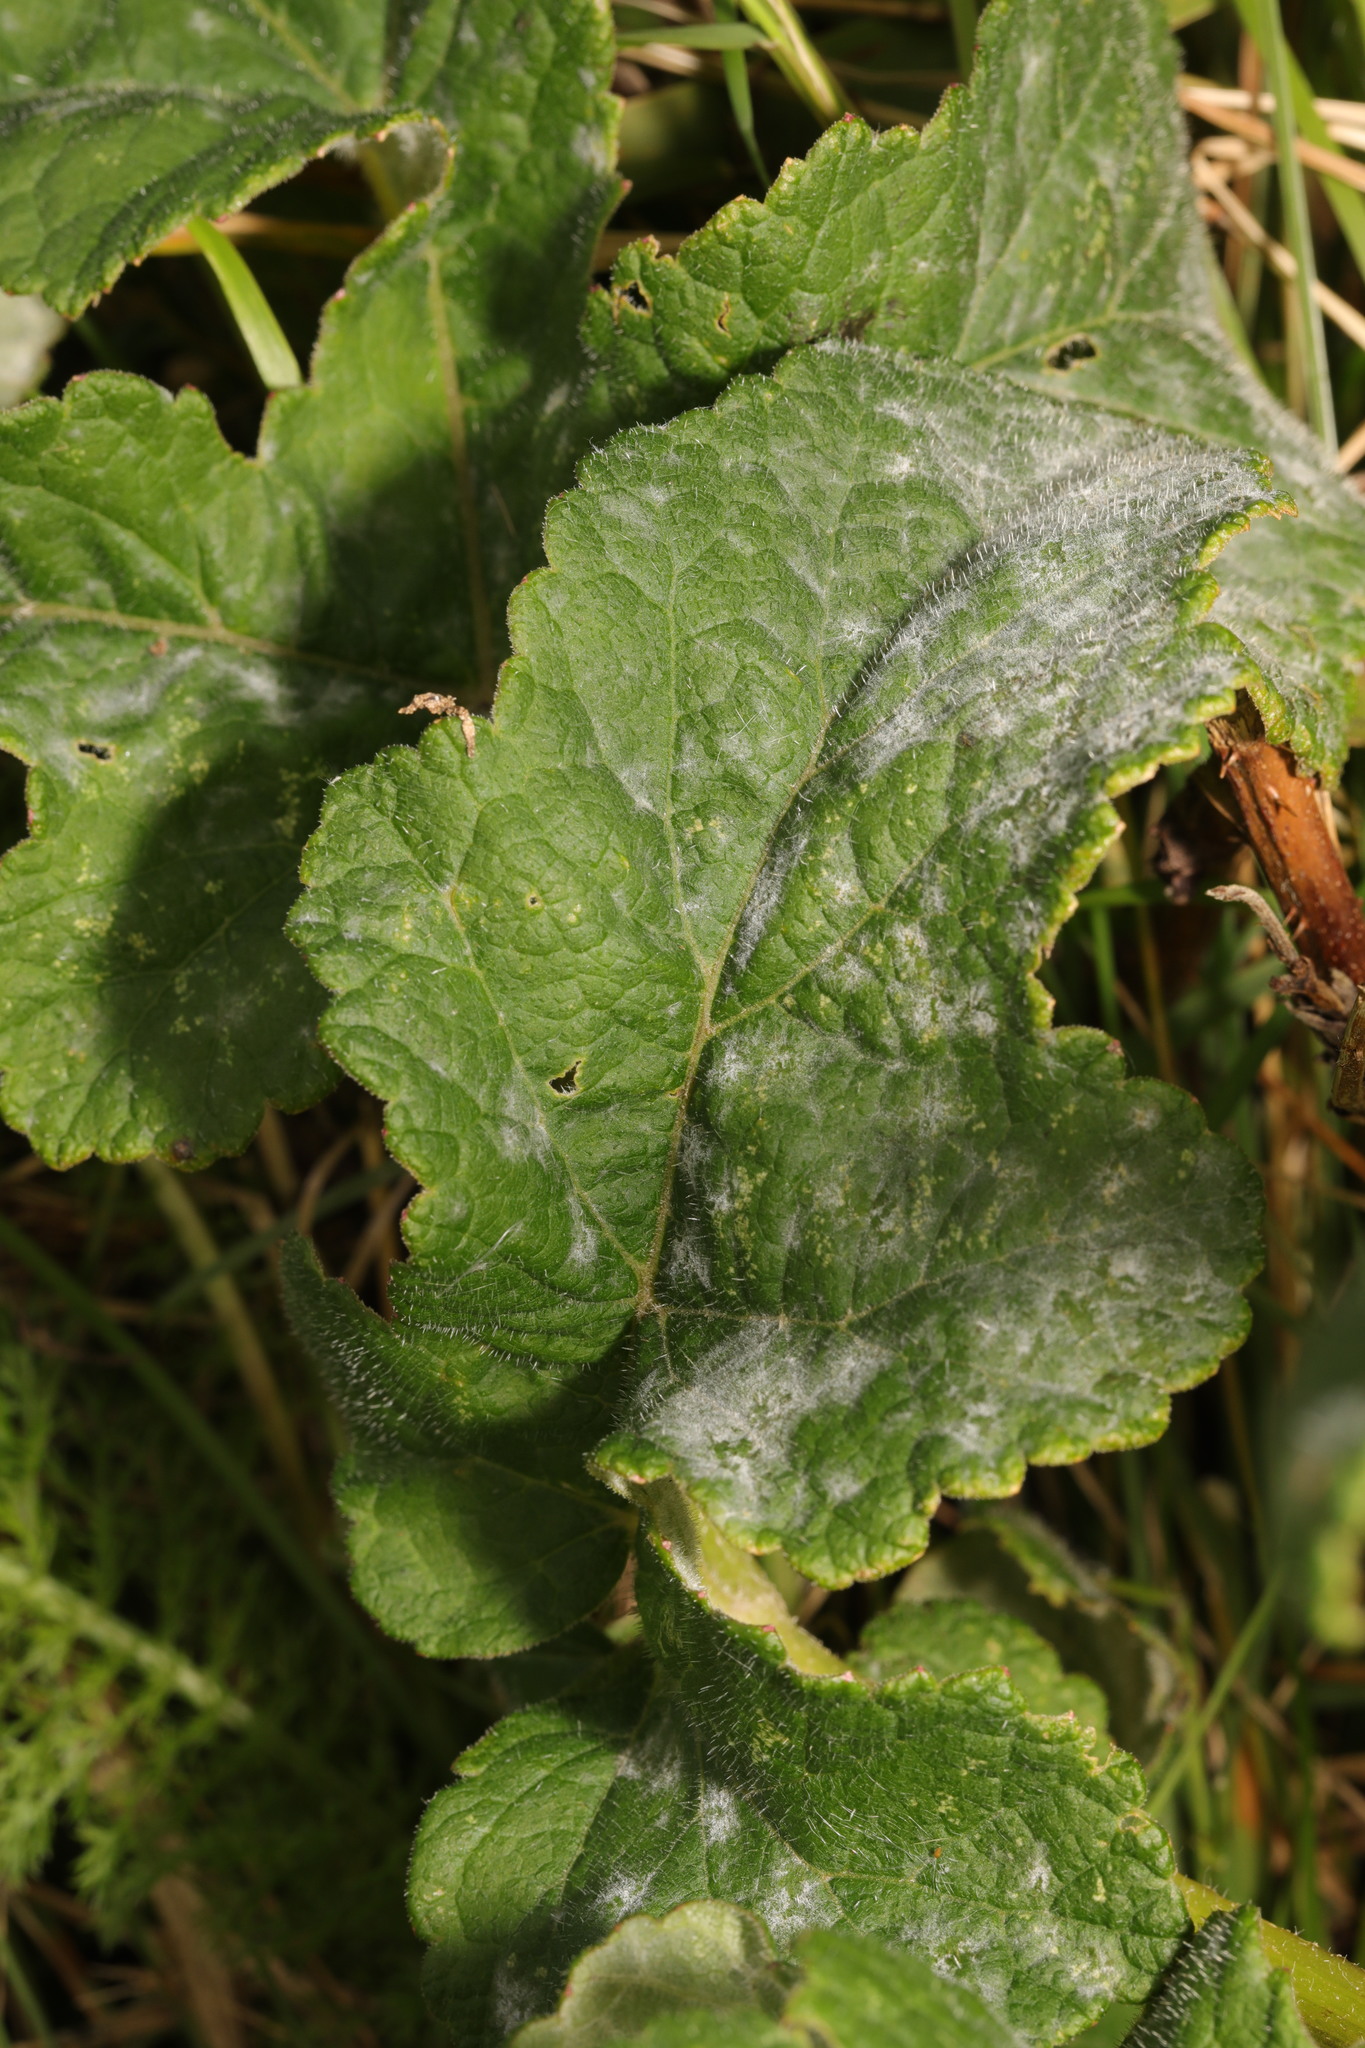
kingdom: Fungi
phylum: Ascomycota
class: Leotiomycetes
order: Helotiales
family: Erysiphaceae
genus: Erysiphe
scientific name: Erysiphe heraclei
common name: Umbellifer mildew
